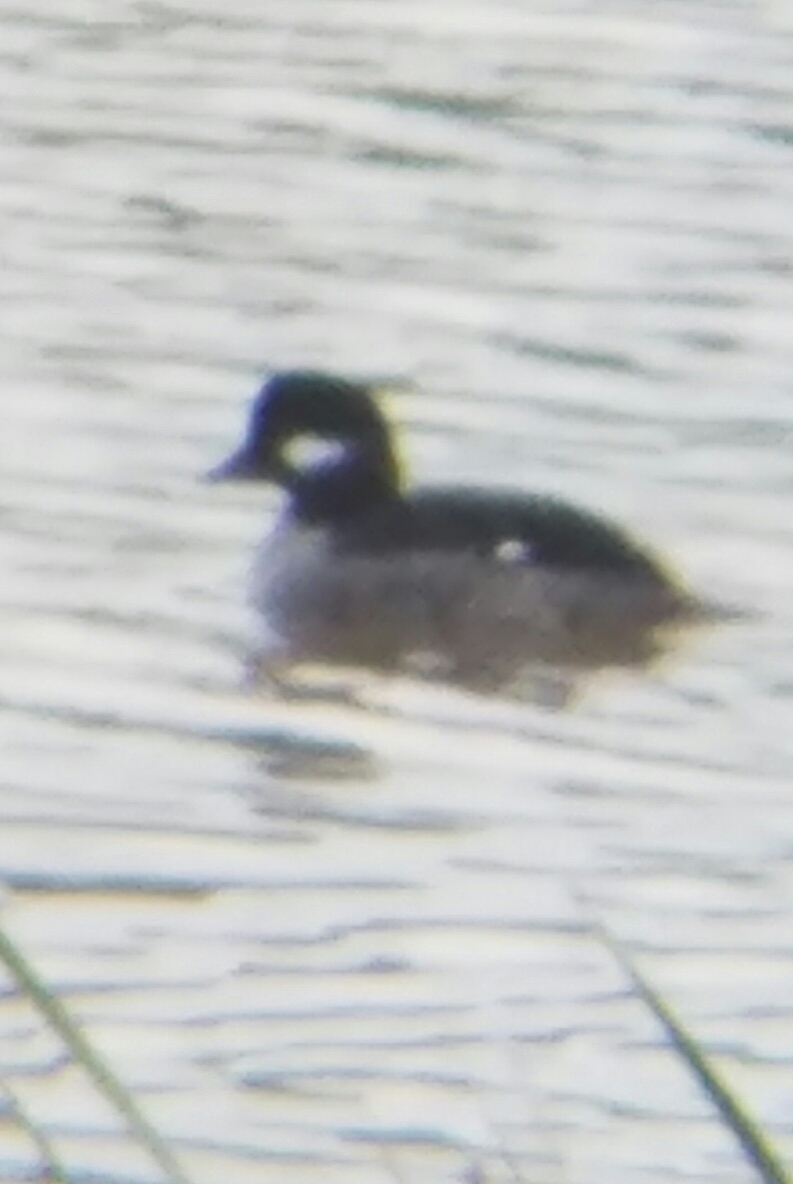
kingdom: Animalia
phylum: Chordata
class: Aves
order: Anseriformes
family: Anatidae
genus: Bucephala
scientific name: Bucephala albeola
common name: Bufflehead
